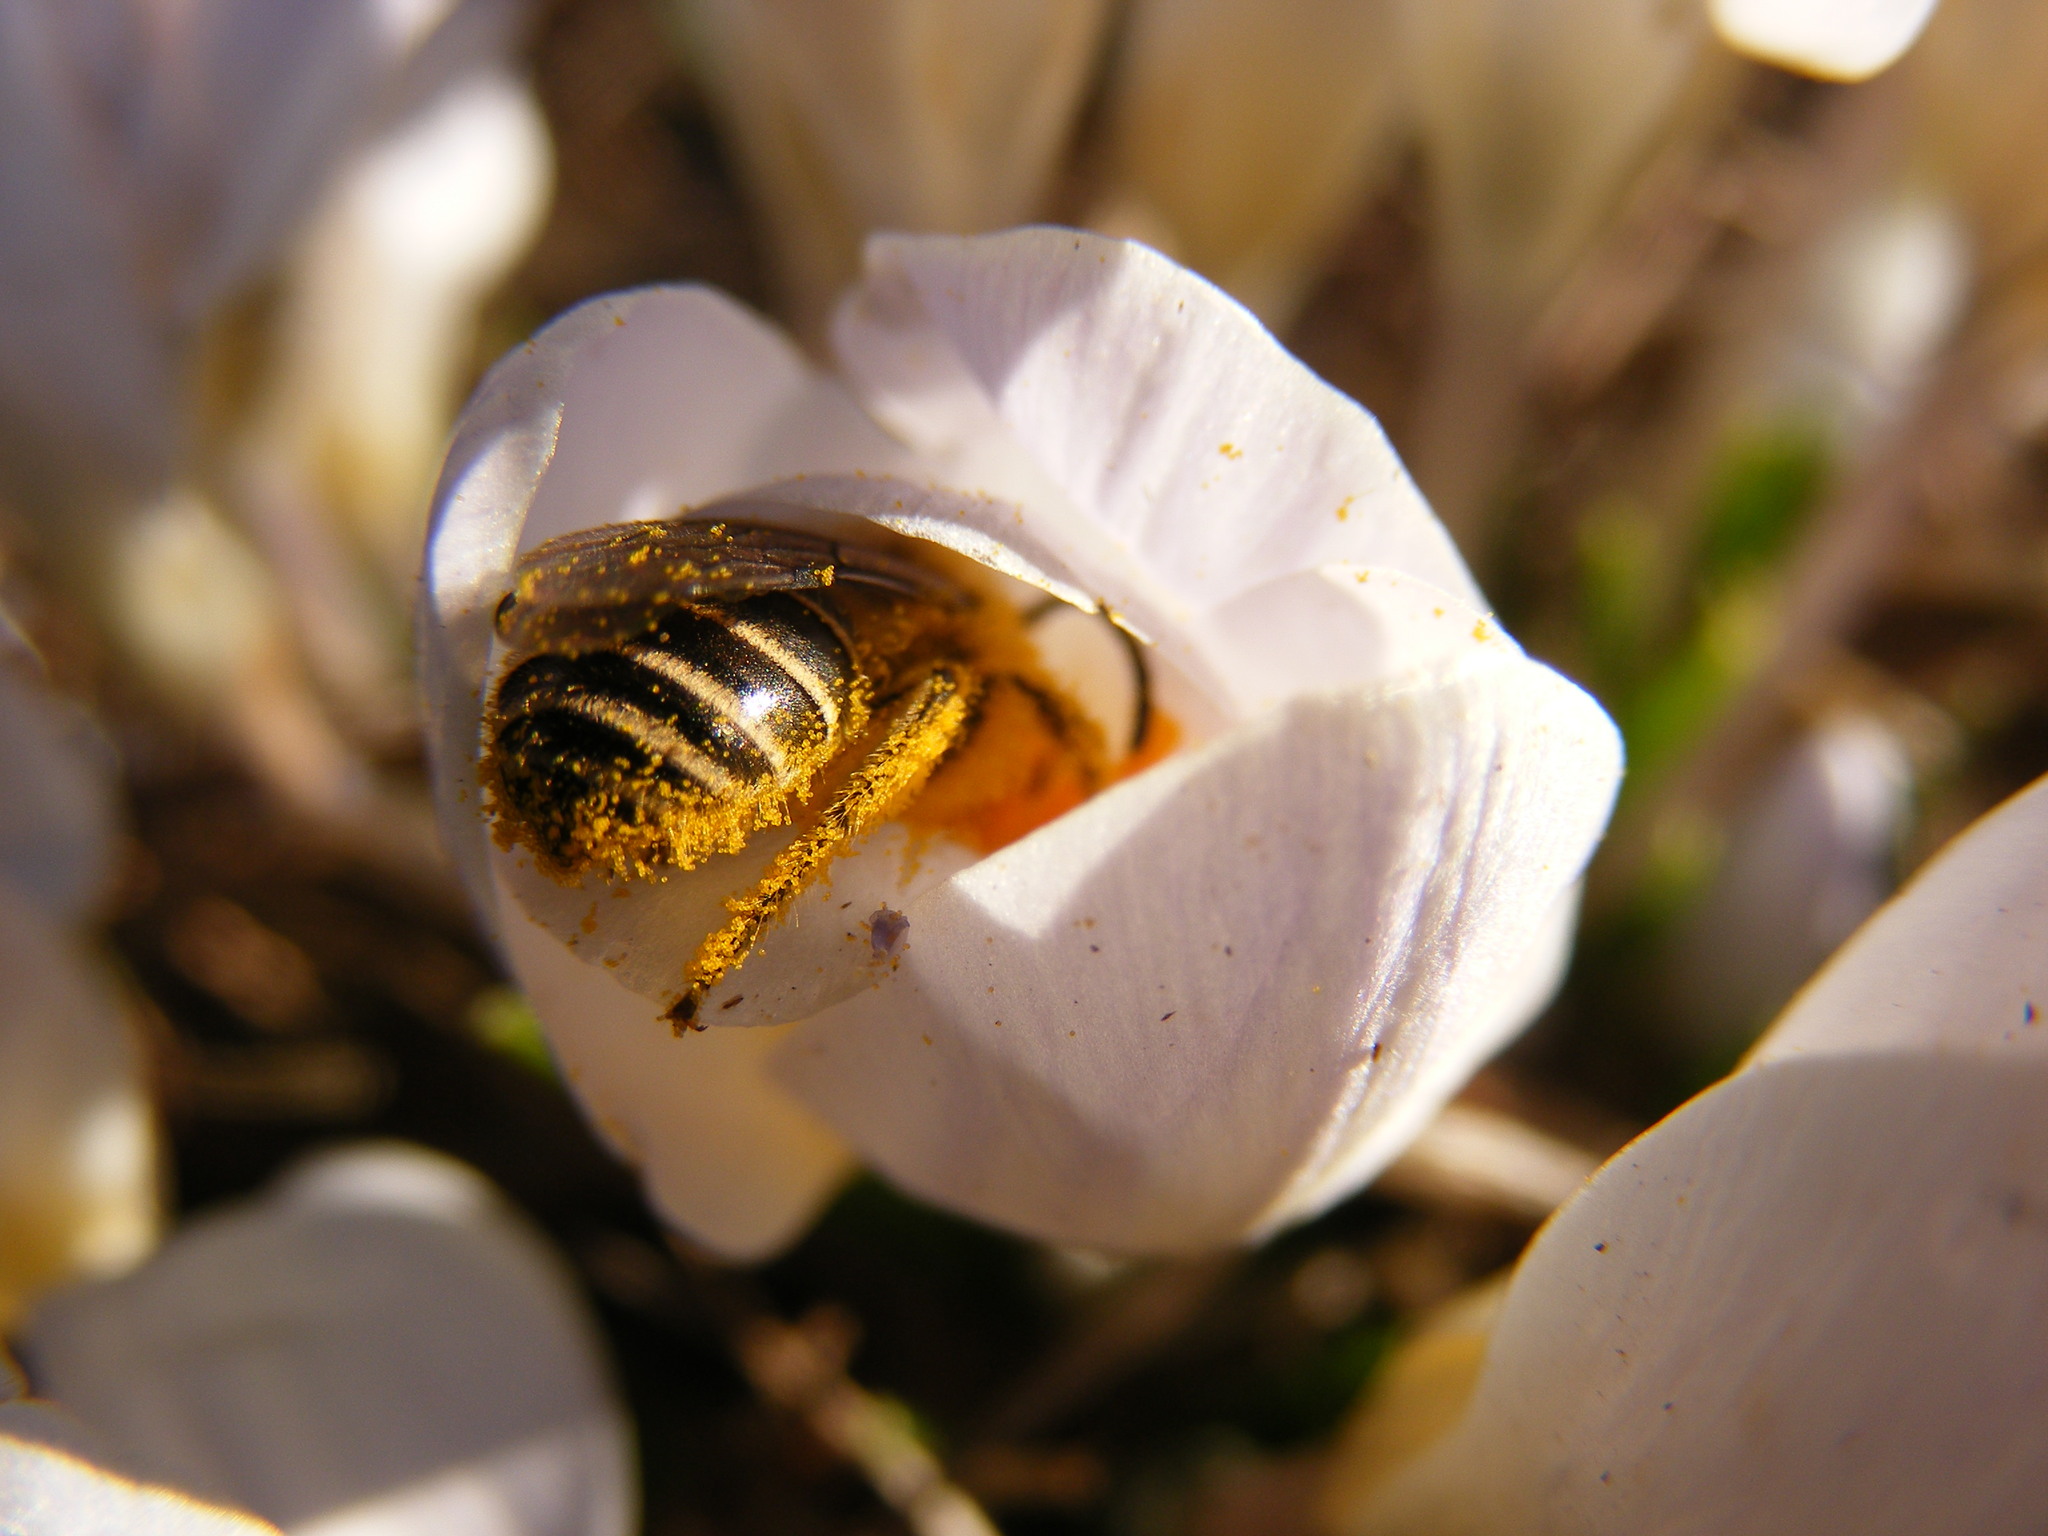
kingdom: Animalia
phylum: Arthropoda
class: Insecta
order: Hymenoptera
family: Colletidae
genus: Colletes
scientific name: Colletes inaequalis
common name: Unequal cellophane bee
